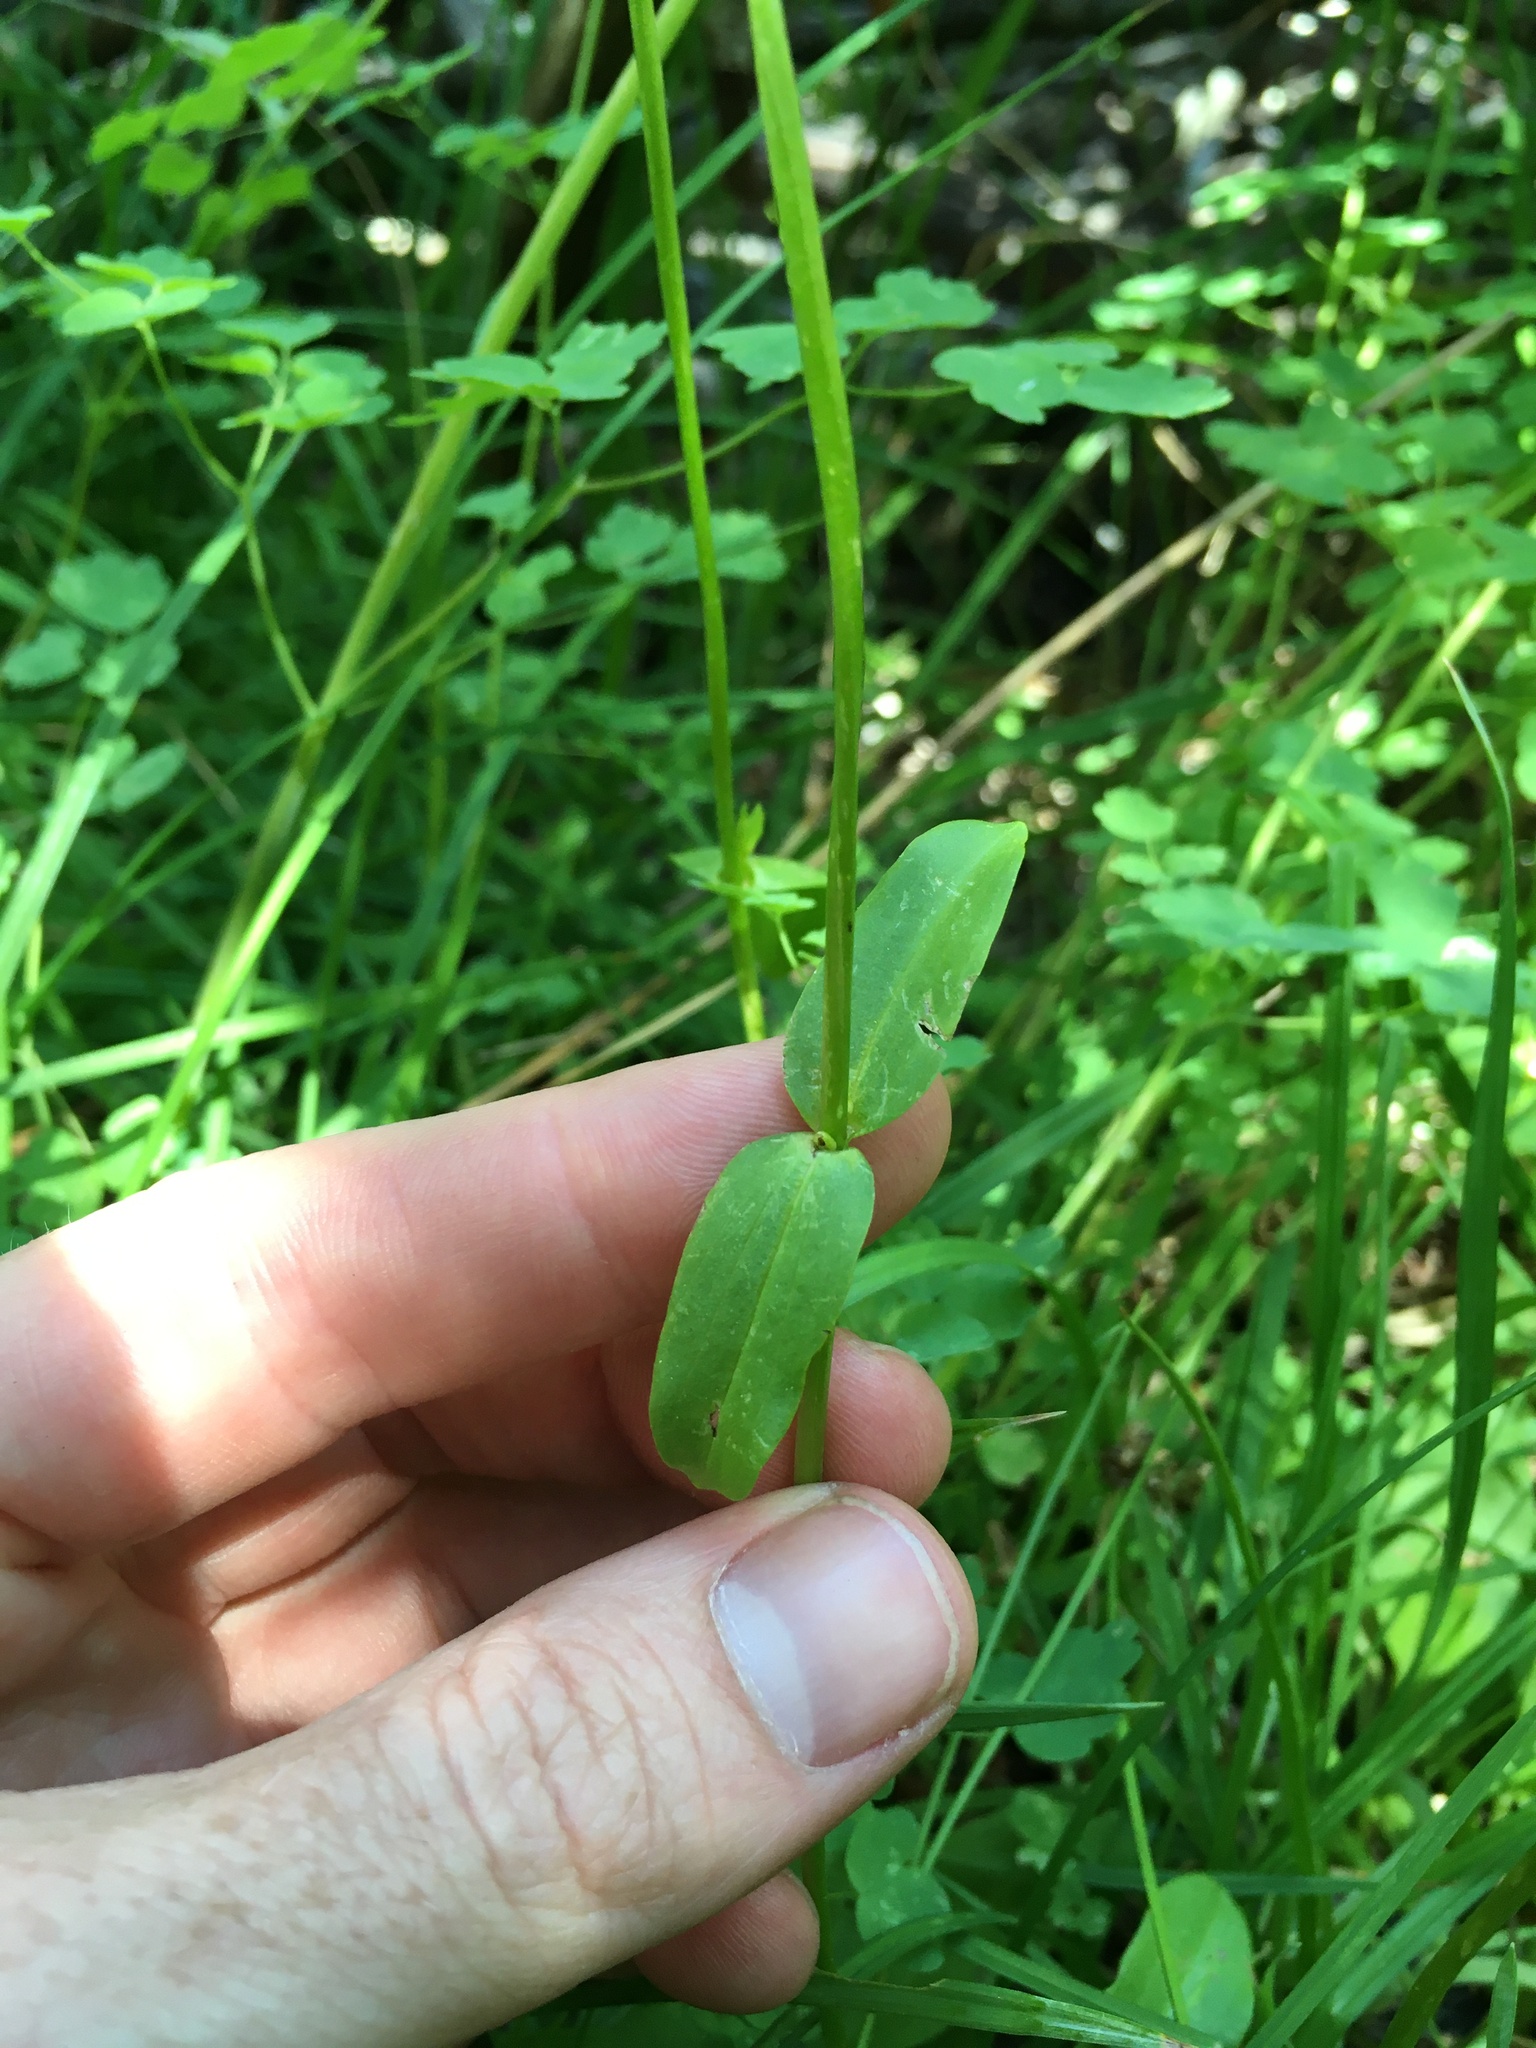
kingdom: Plantae
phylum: Tracheophyta
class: Magnoliopsida
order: Gentianales
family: Gentianaceae
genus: Swertia
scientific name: Swertia perennis
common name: Alpine bog swertia
